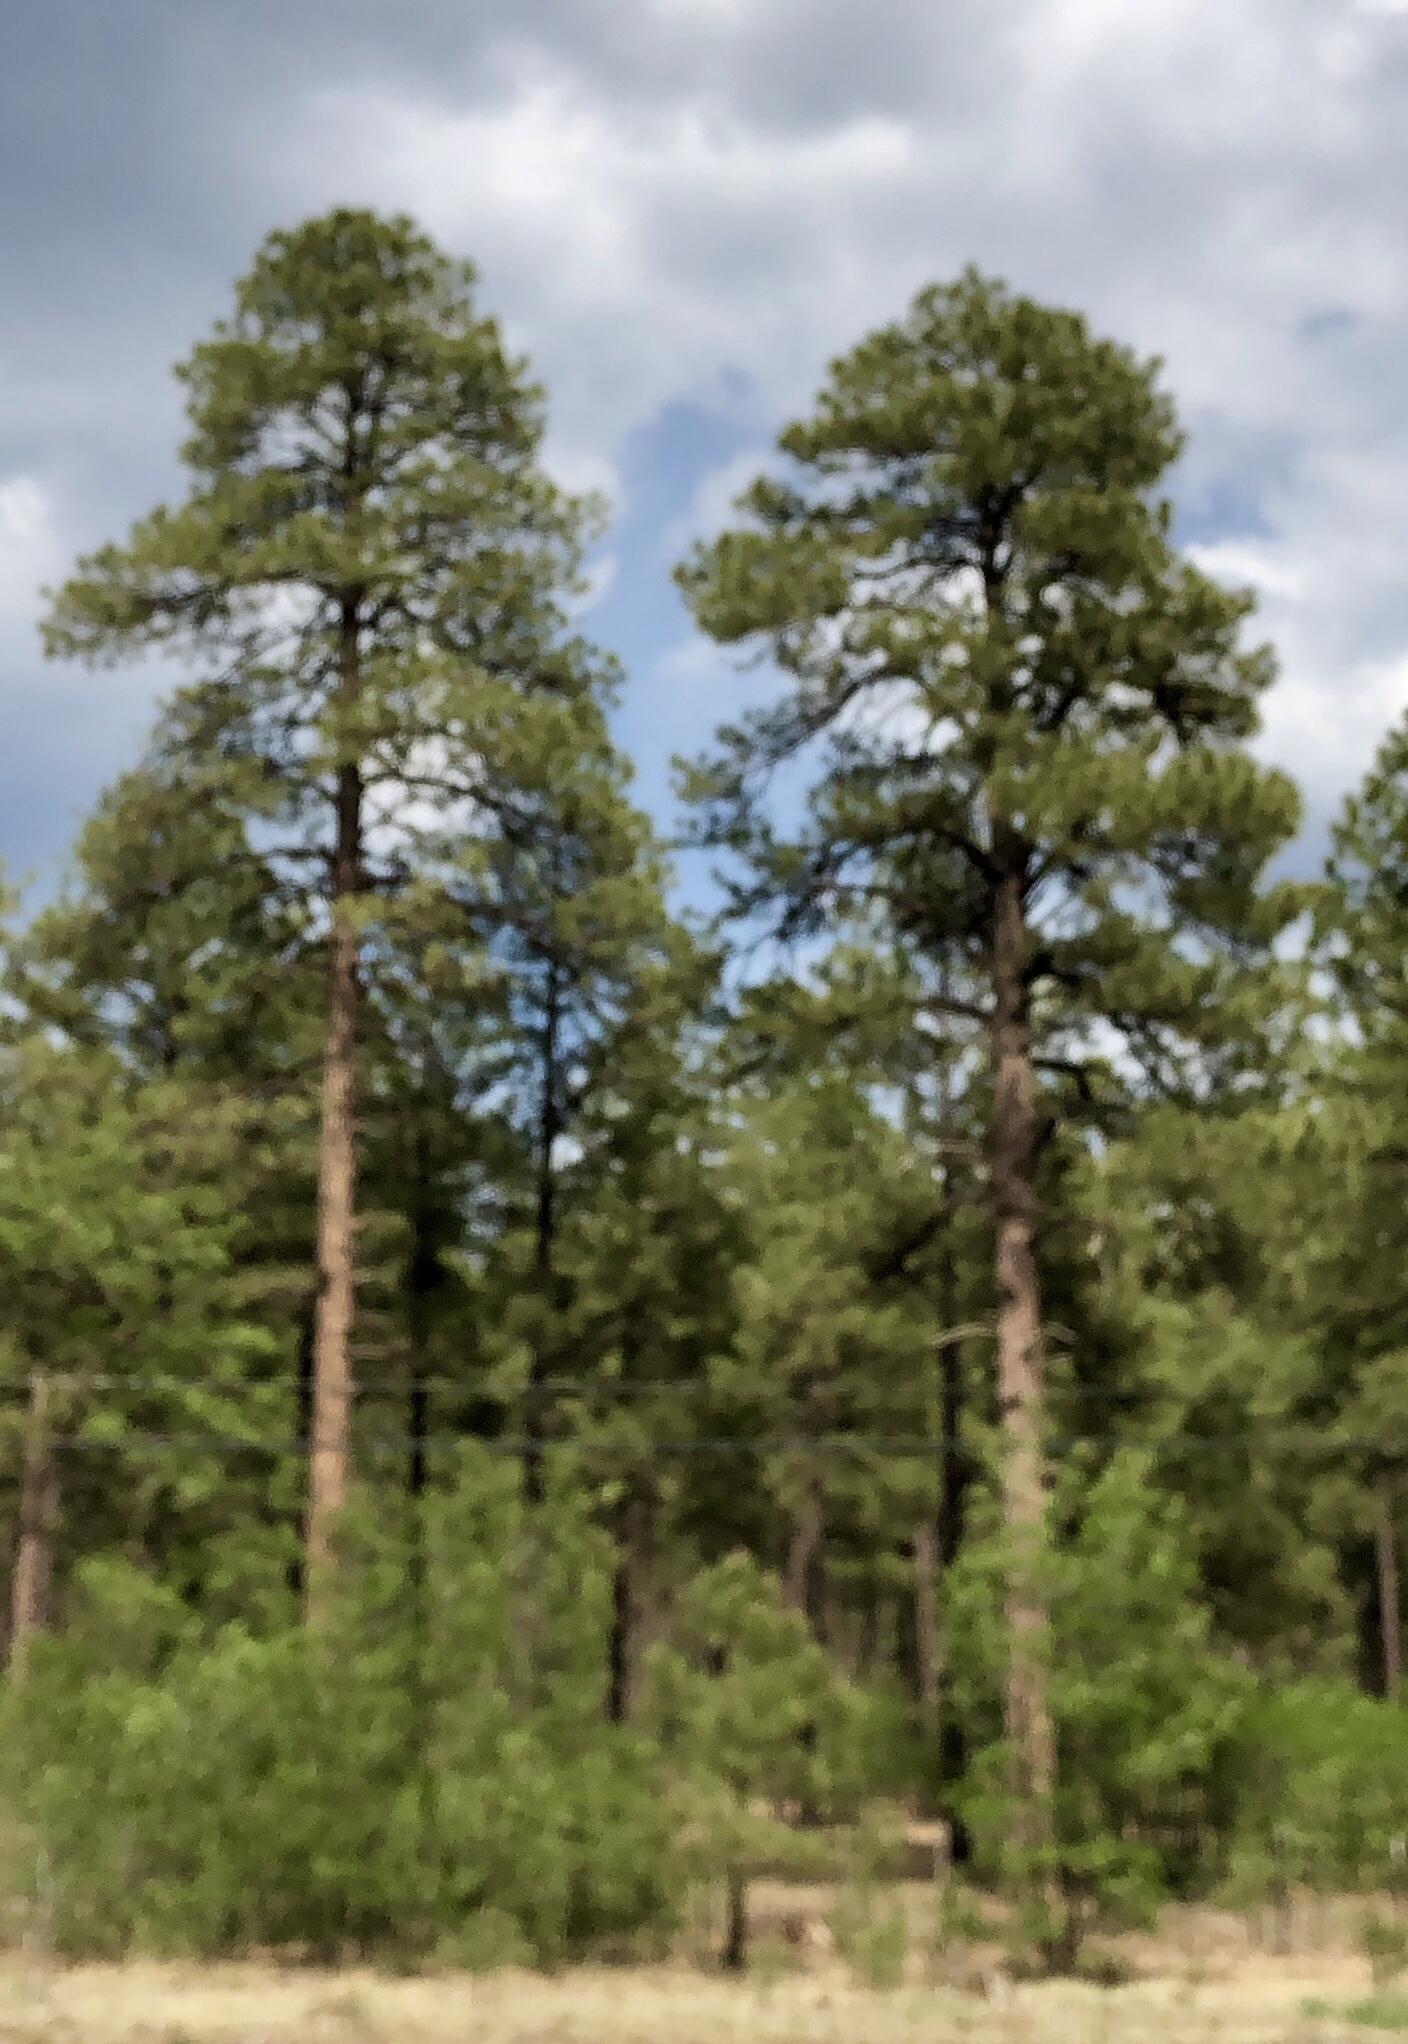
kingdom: Plantae
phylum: Tracheophyta
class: Pinopsida
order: Pinales
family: Pinaceae
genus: Pinus
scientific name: Pinus ponderosa
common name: Western yellow-pine
